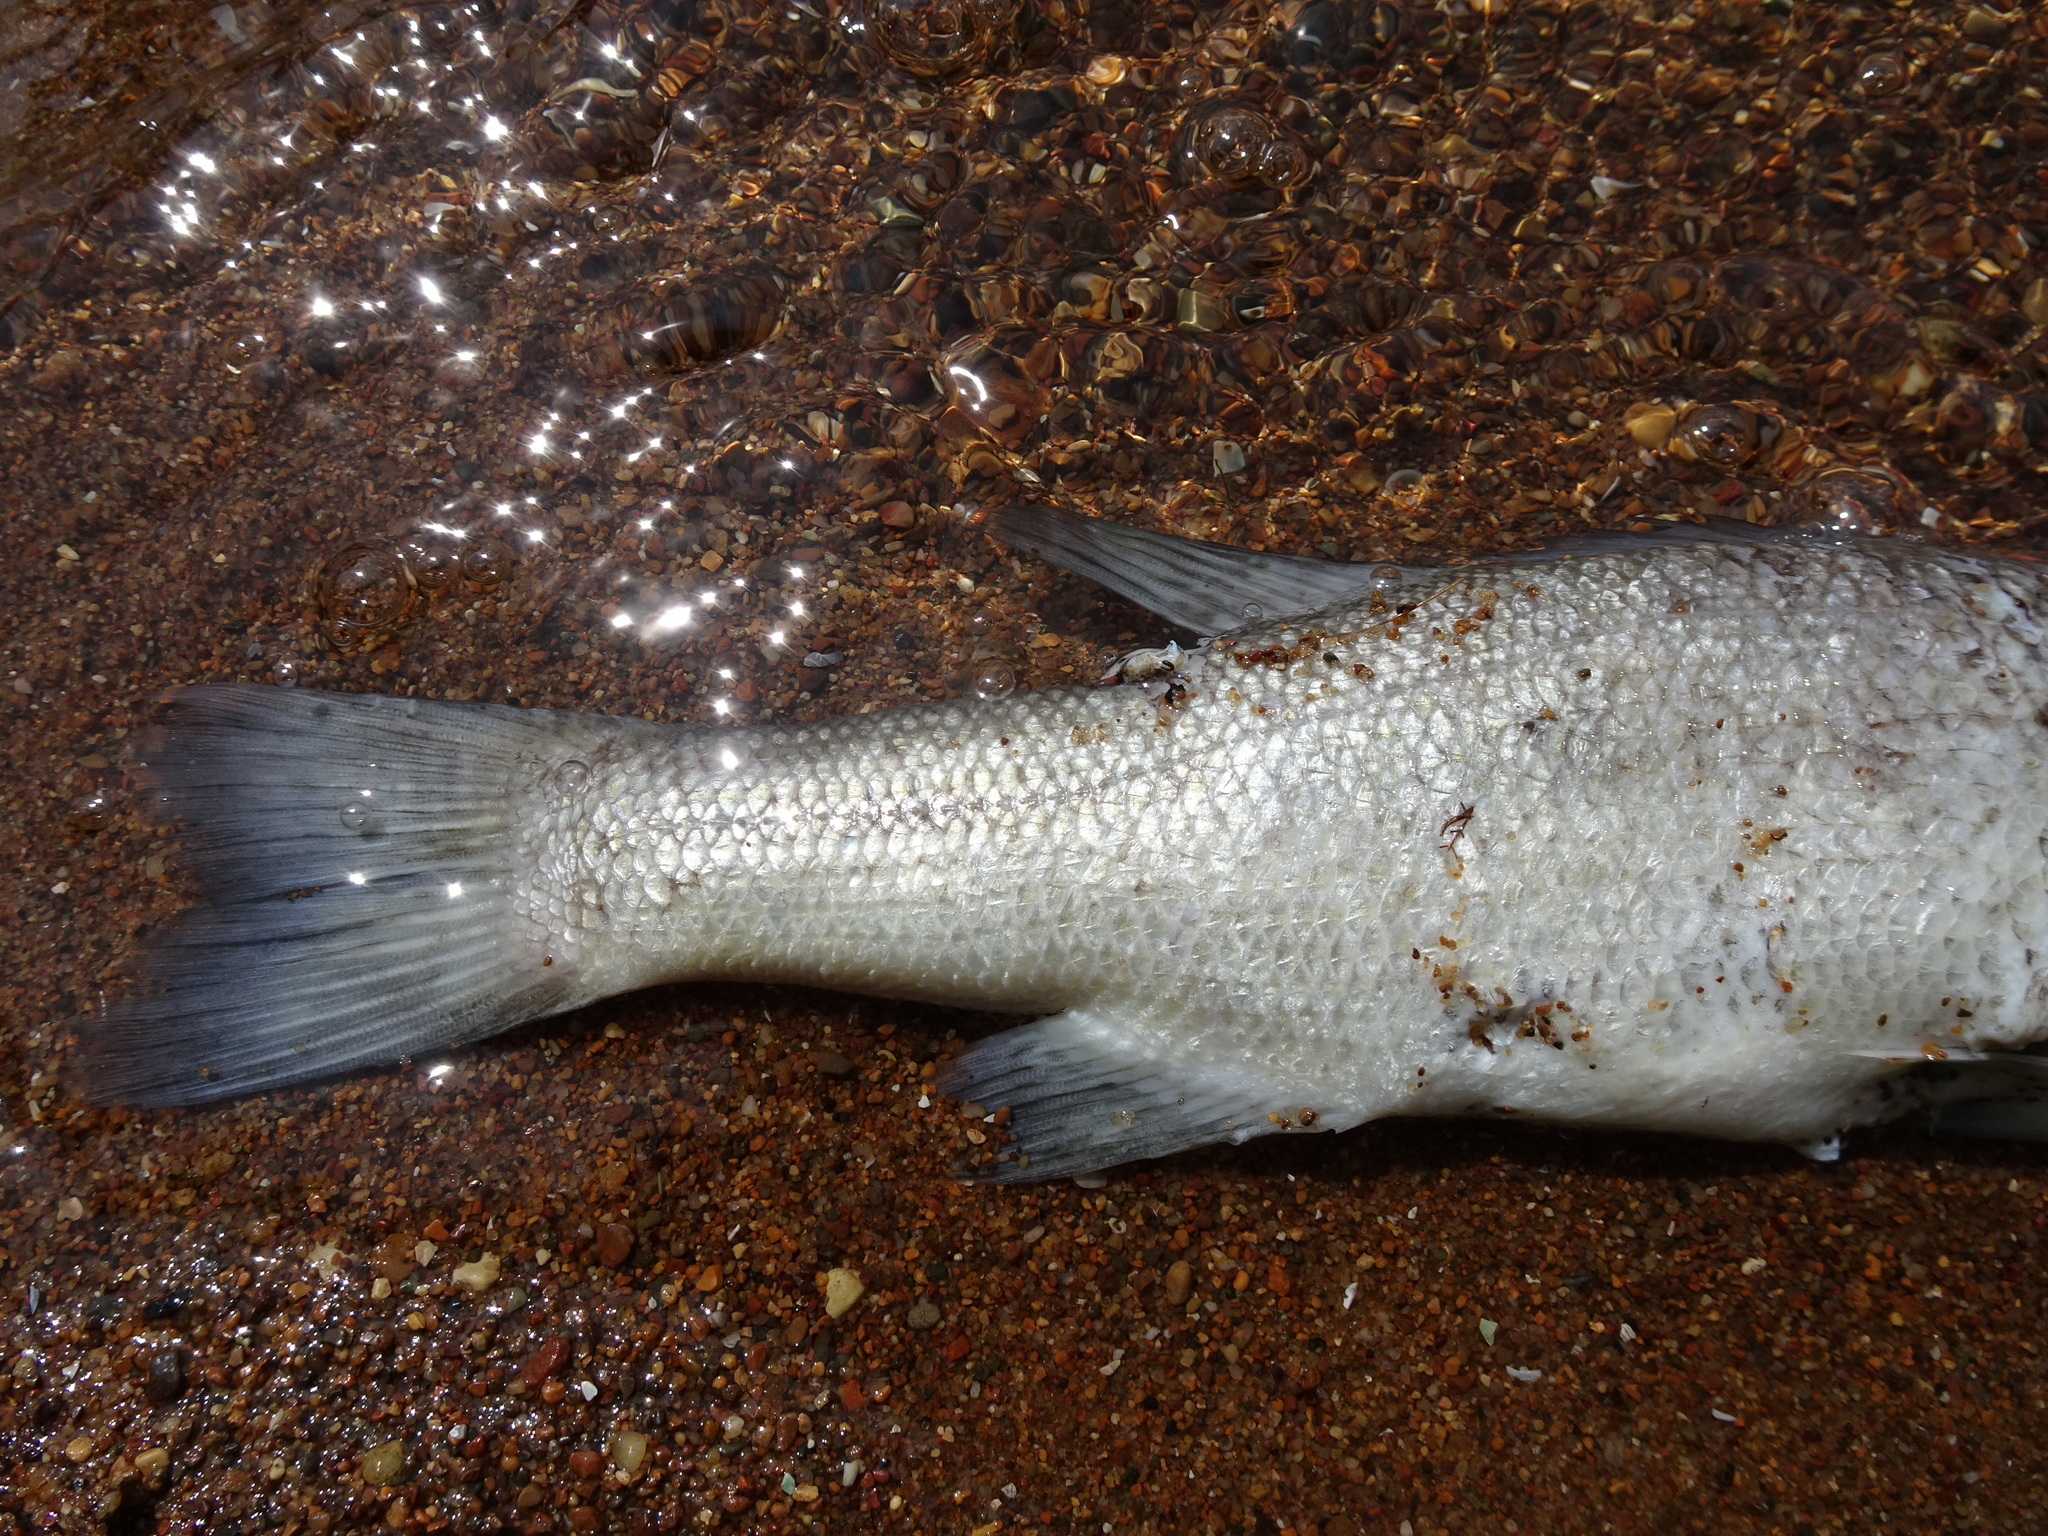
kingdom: Animalia
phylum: Chordata
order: Perciformes
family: Centrarchidae
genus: Micropterus
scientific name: Micropterus
